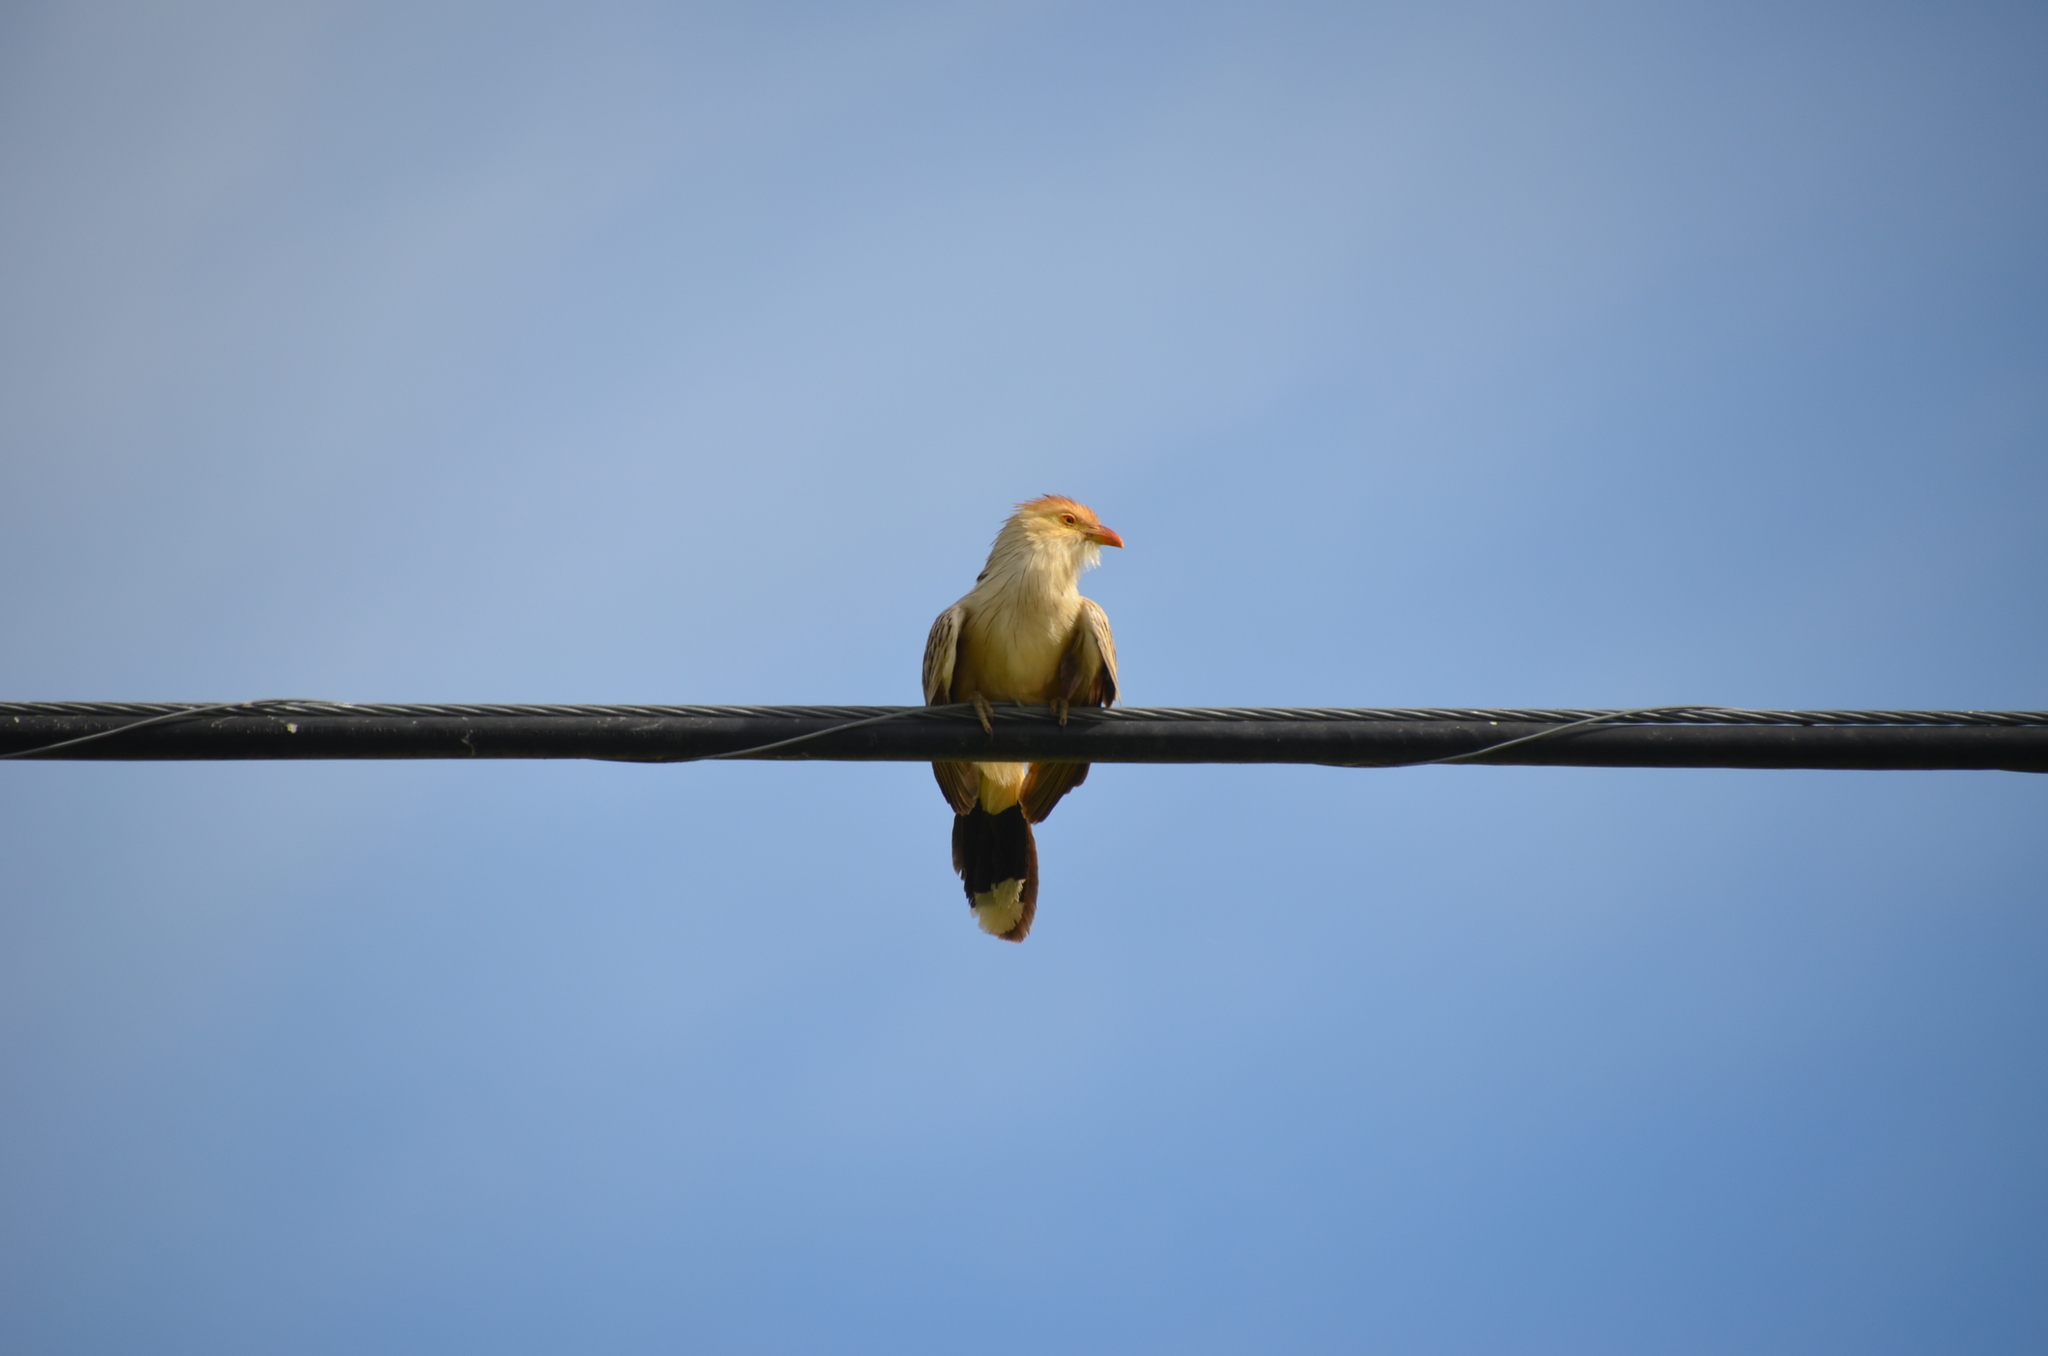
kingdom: Animalia
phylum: Chordata
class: Aves
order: Cuculiformes
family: Cuculidae
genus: Guira
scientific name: Guira guira
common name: Guira cuckoo
